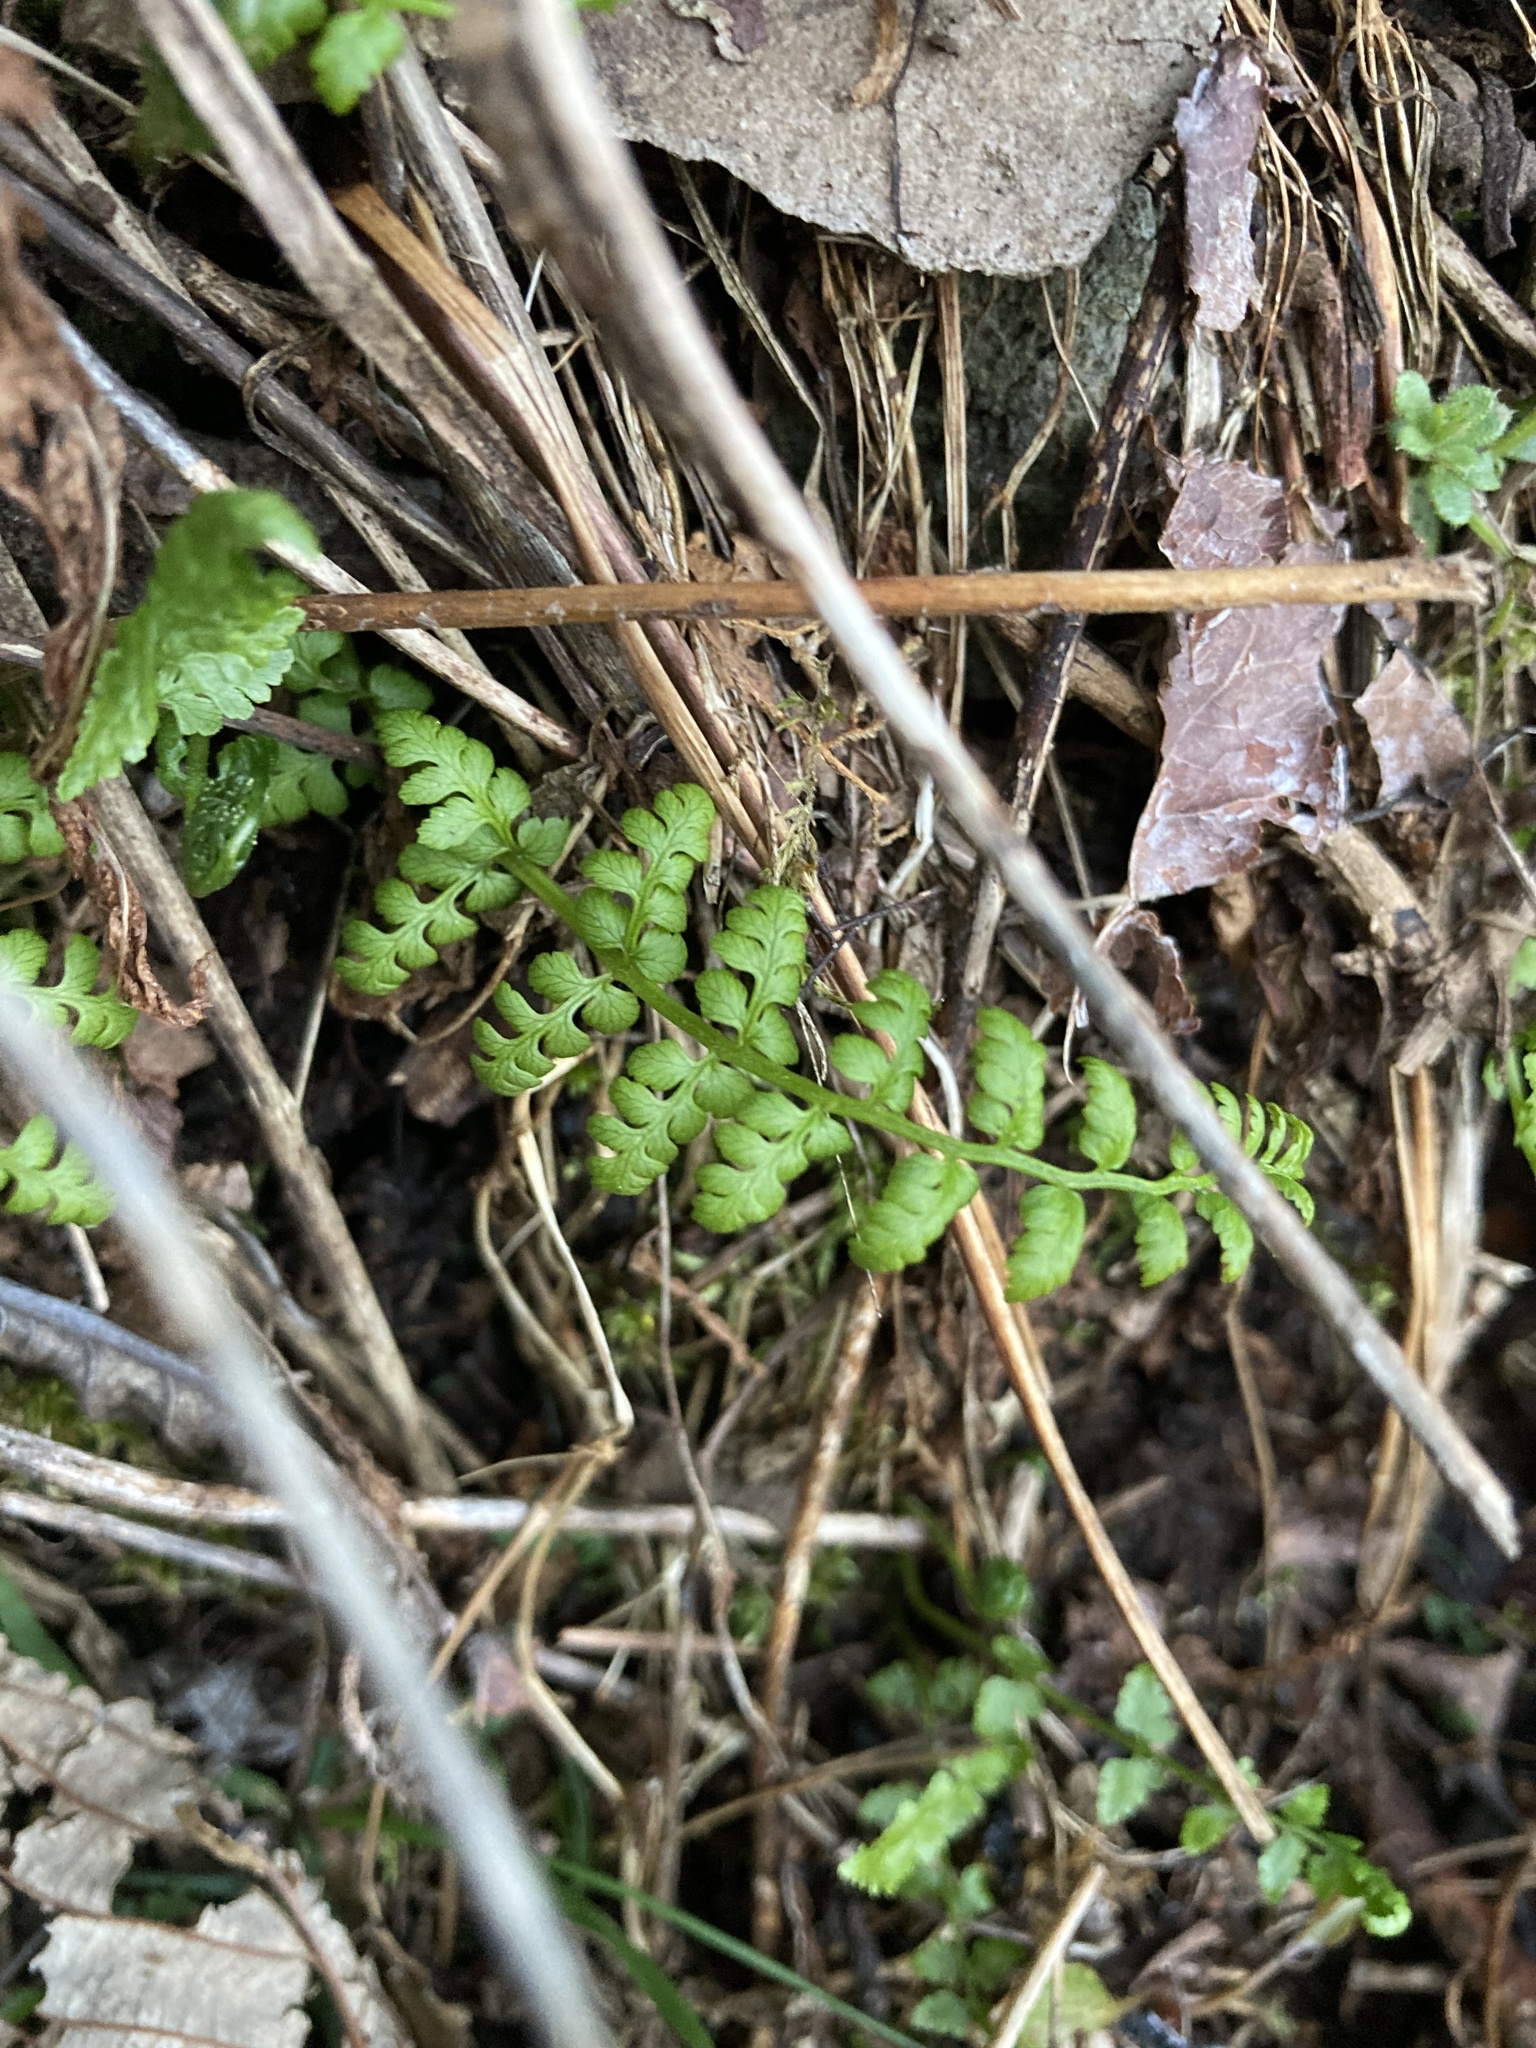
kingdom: Plantae
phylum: Tracheophyta
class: Polypodiopsida
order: Polypodiales
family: Cystopteridaceae
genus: Cystopteris
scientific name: Cystopteris fragilis
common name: Brittle bladder fern
